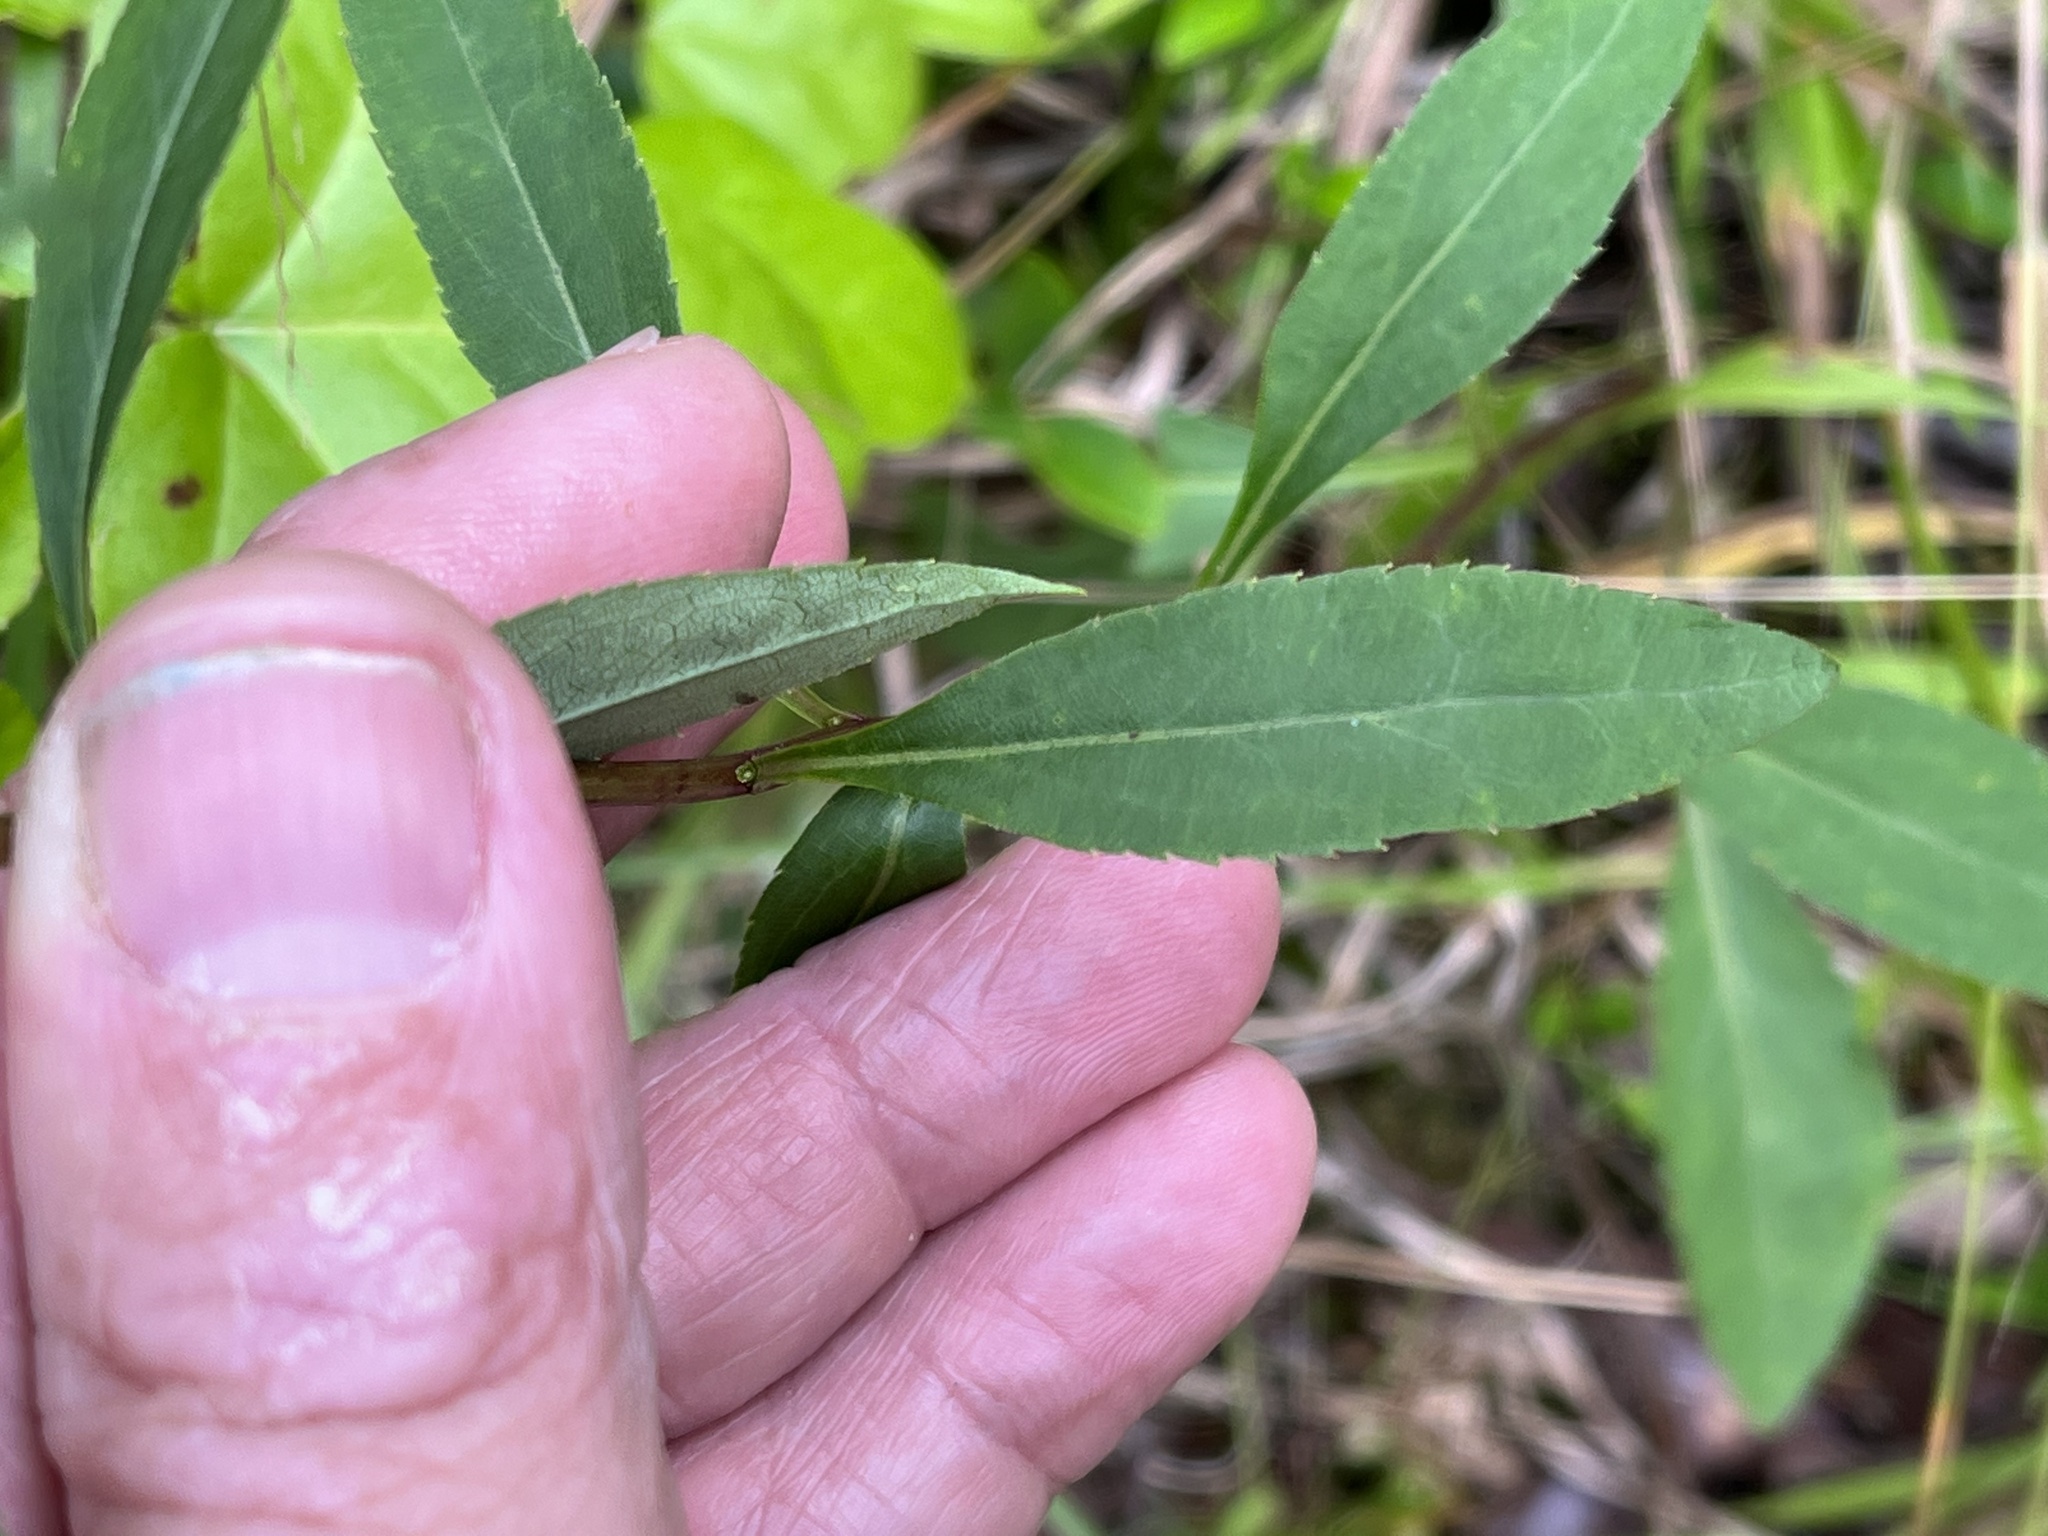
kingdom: Plantae
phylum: Tracheophyta
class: Magnoliopsida
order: Asterales
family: Asteraceae
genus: Solidago
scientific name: Solidago vaseyi
